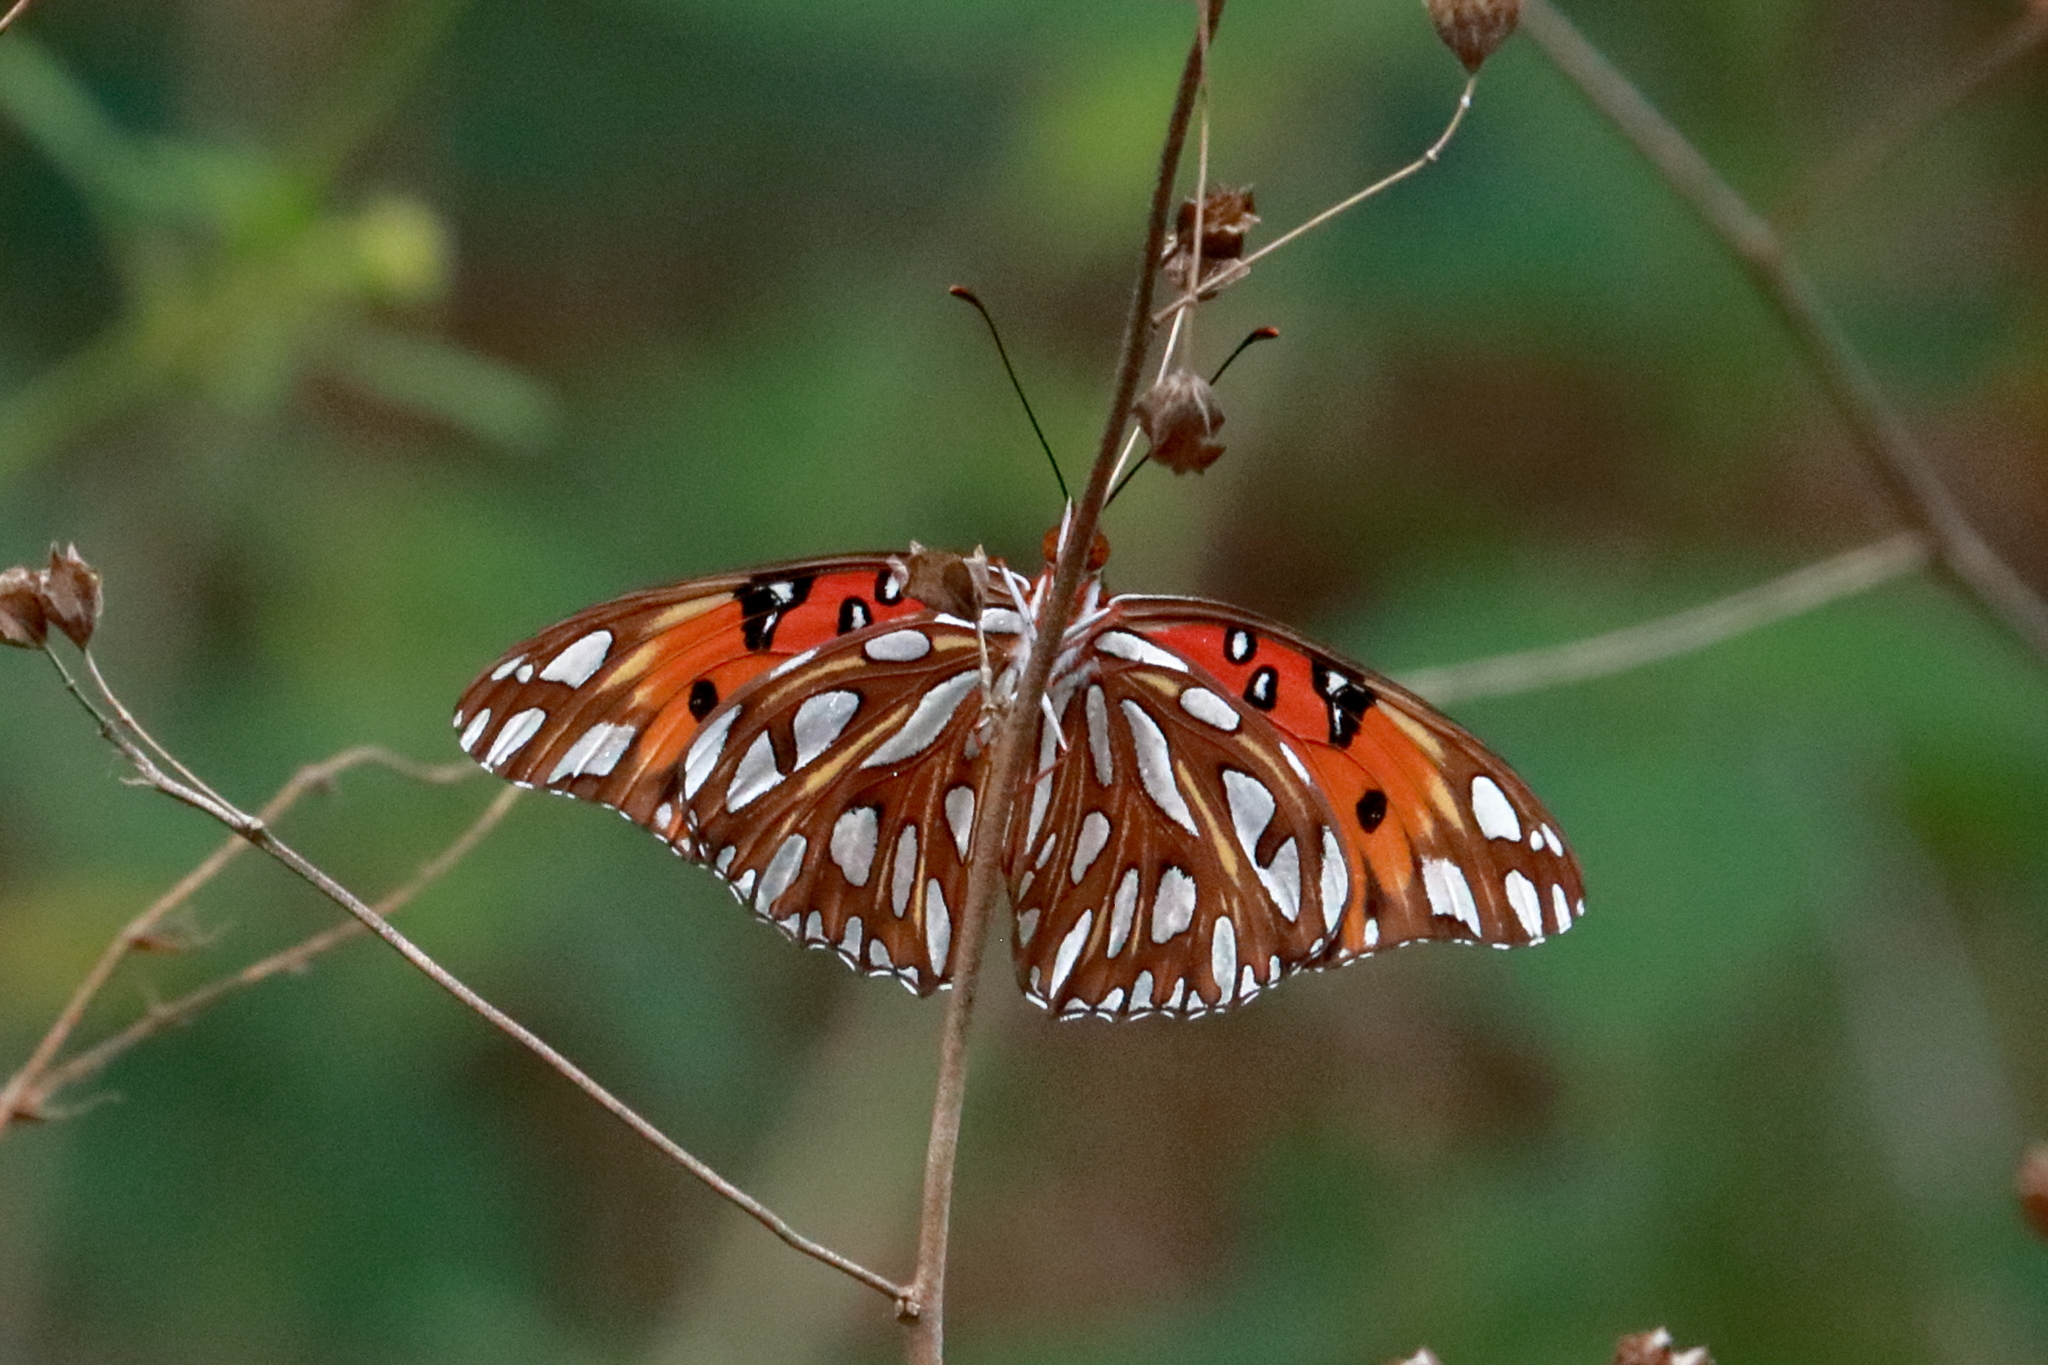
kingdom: Animalia
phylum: Arthropoda
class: Insecta
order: Lepidoptera
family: Nymphalidae
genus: Dione
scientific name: Dione vanillae
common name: Gulf fritillary
